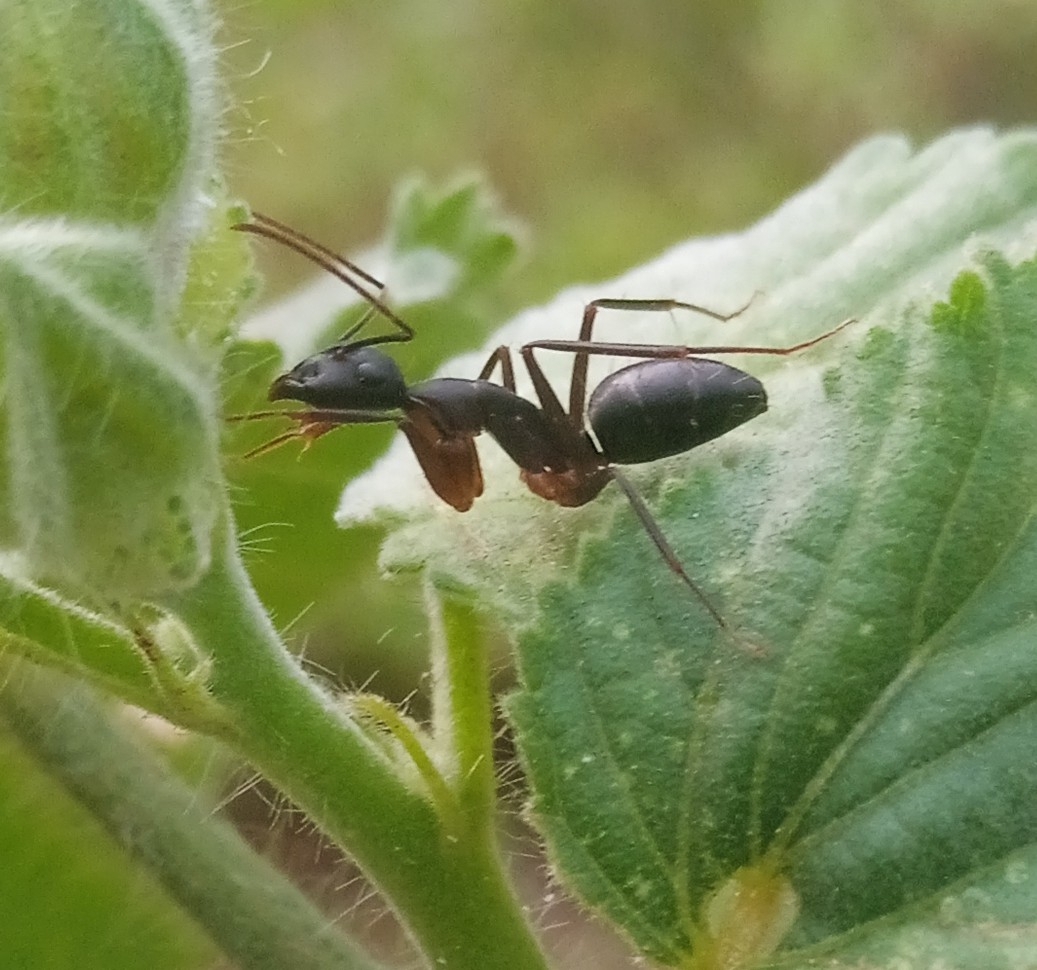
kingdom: Animalia
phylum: Arthropoda
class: Insecta
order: Hymenoptera
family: Formicidae
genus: Camponotus
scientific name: Camponotus compressus
